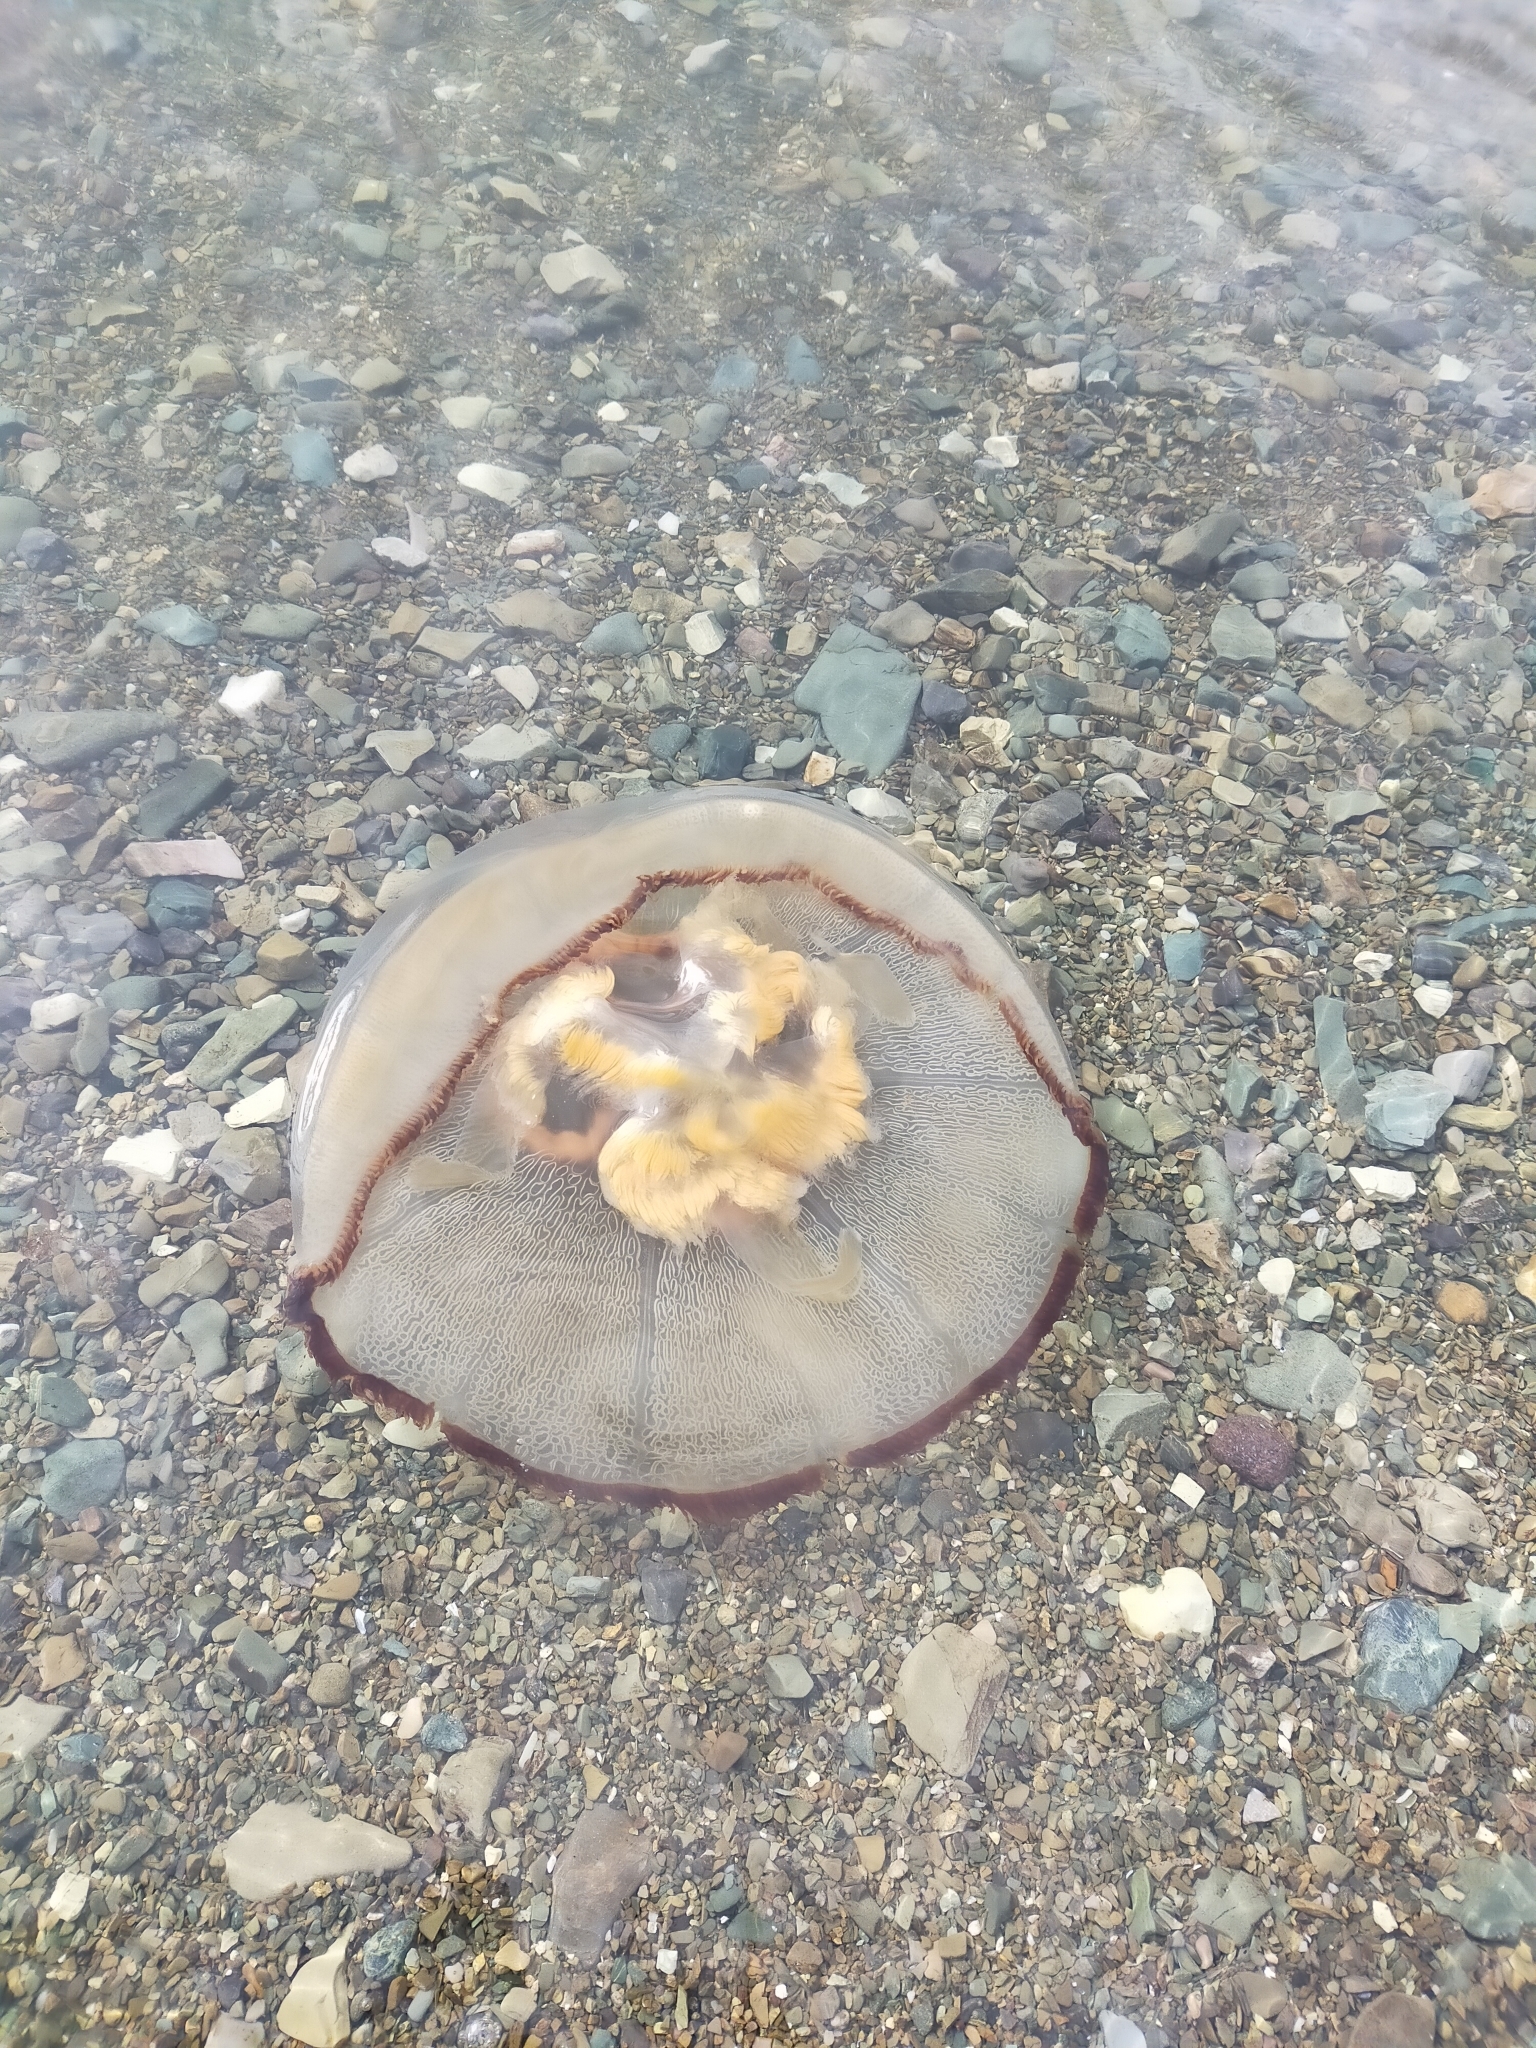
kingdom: Animalia
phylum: Cnidaria
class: Scyphozoa
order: Semaeostomeae
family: Ulmaridae
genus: Aurelia
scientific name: Aurelia limbata
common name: Brown-banded moon jelly
